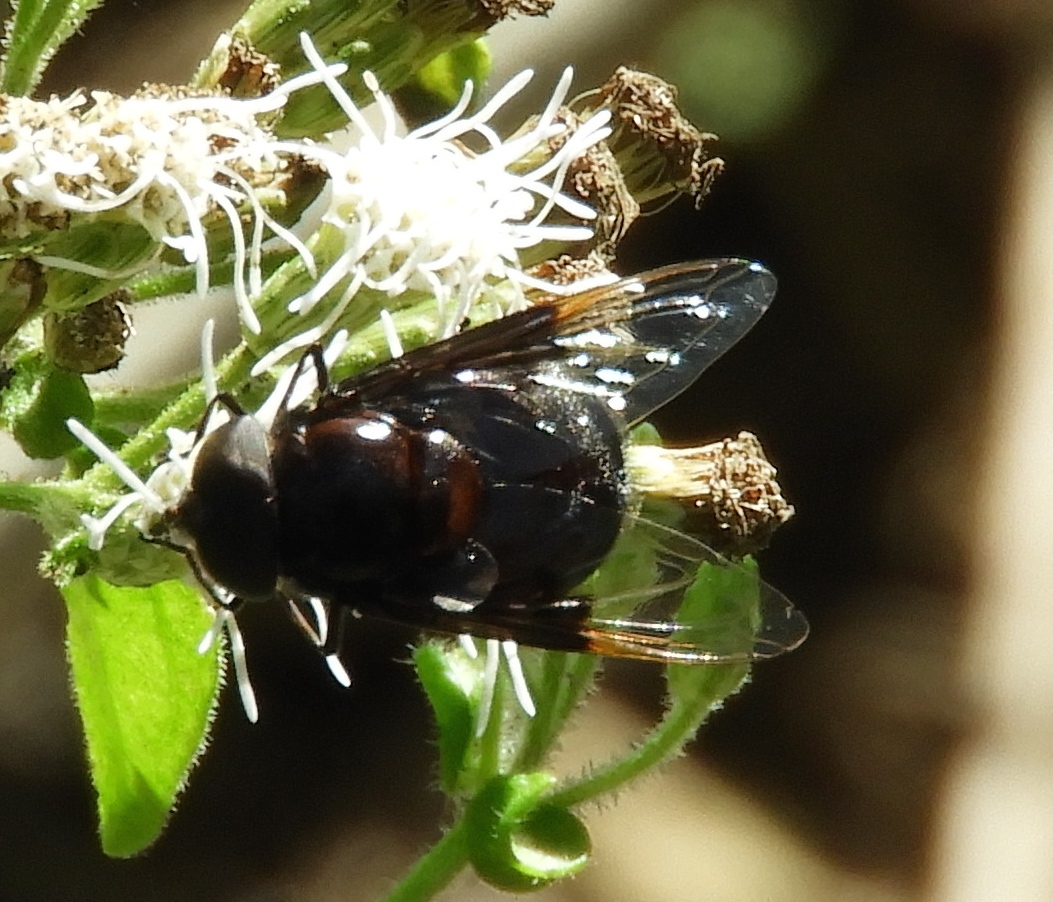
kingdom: Animalia
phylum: Arthropoda
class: Insecta
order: Diptera
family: Syrphidae
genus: Copestylum
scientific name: Copestylum
